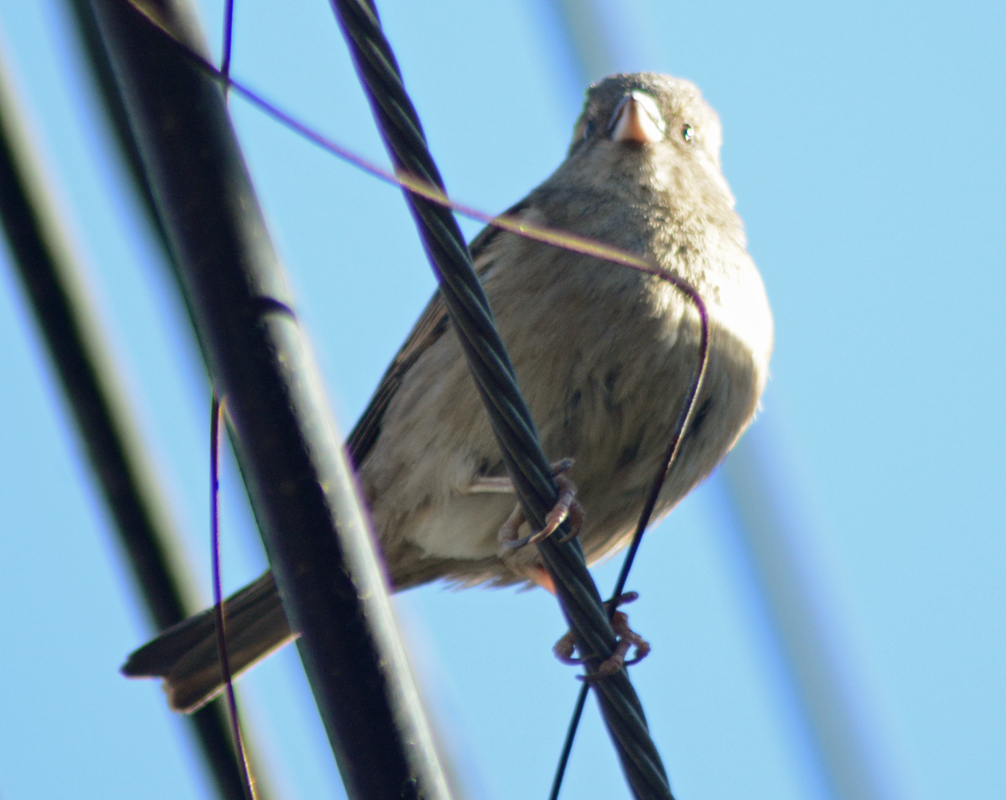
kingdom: Animalia
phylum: Chordata
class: Aves
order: Passeriformes
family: Passeridae
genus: Passer
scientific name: Passer domesticus
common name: House sparrow
